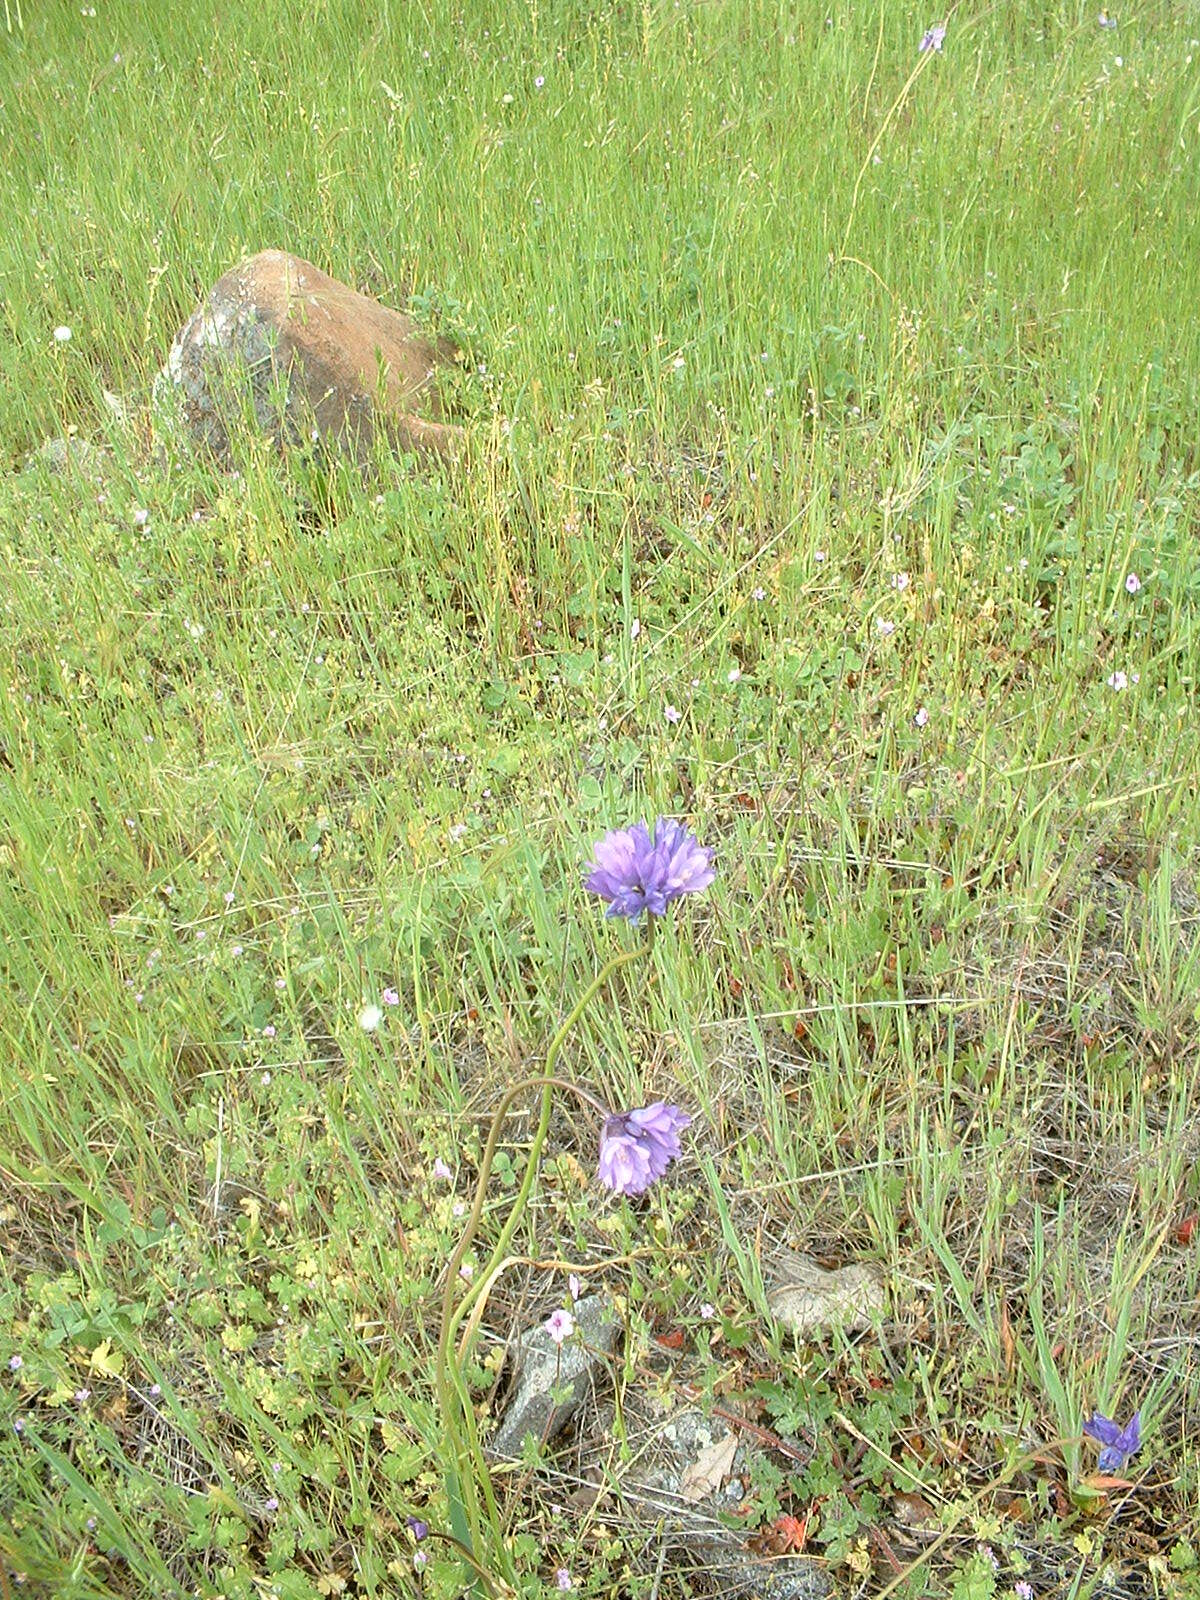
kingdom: Plantae
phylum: Tracheophyta
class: Liliopsida
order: Asparagales
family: Asparagaceae
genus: Dipterostemon
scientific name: Dipterostemon capitatus
